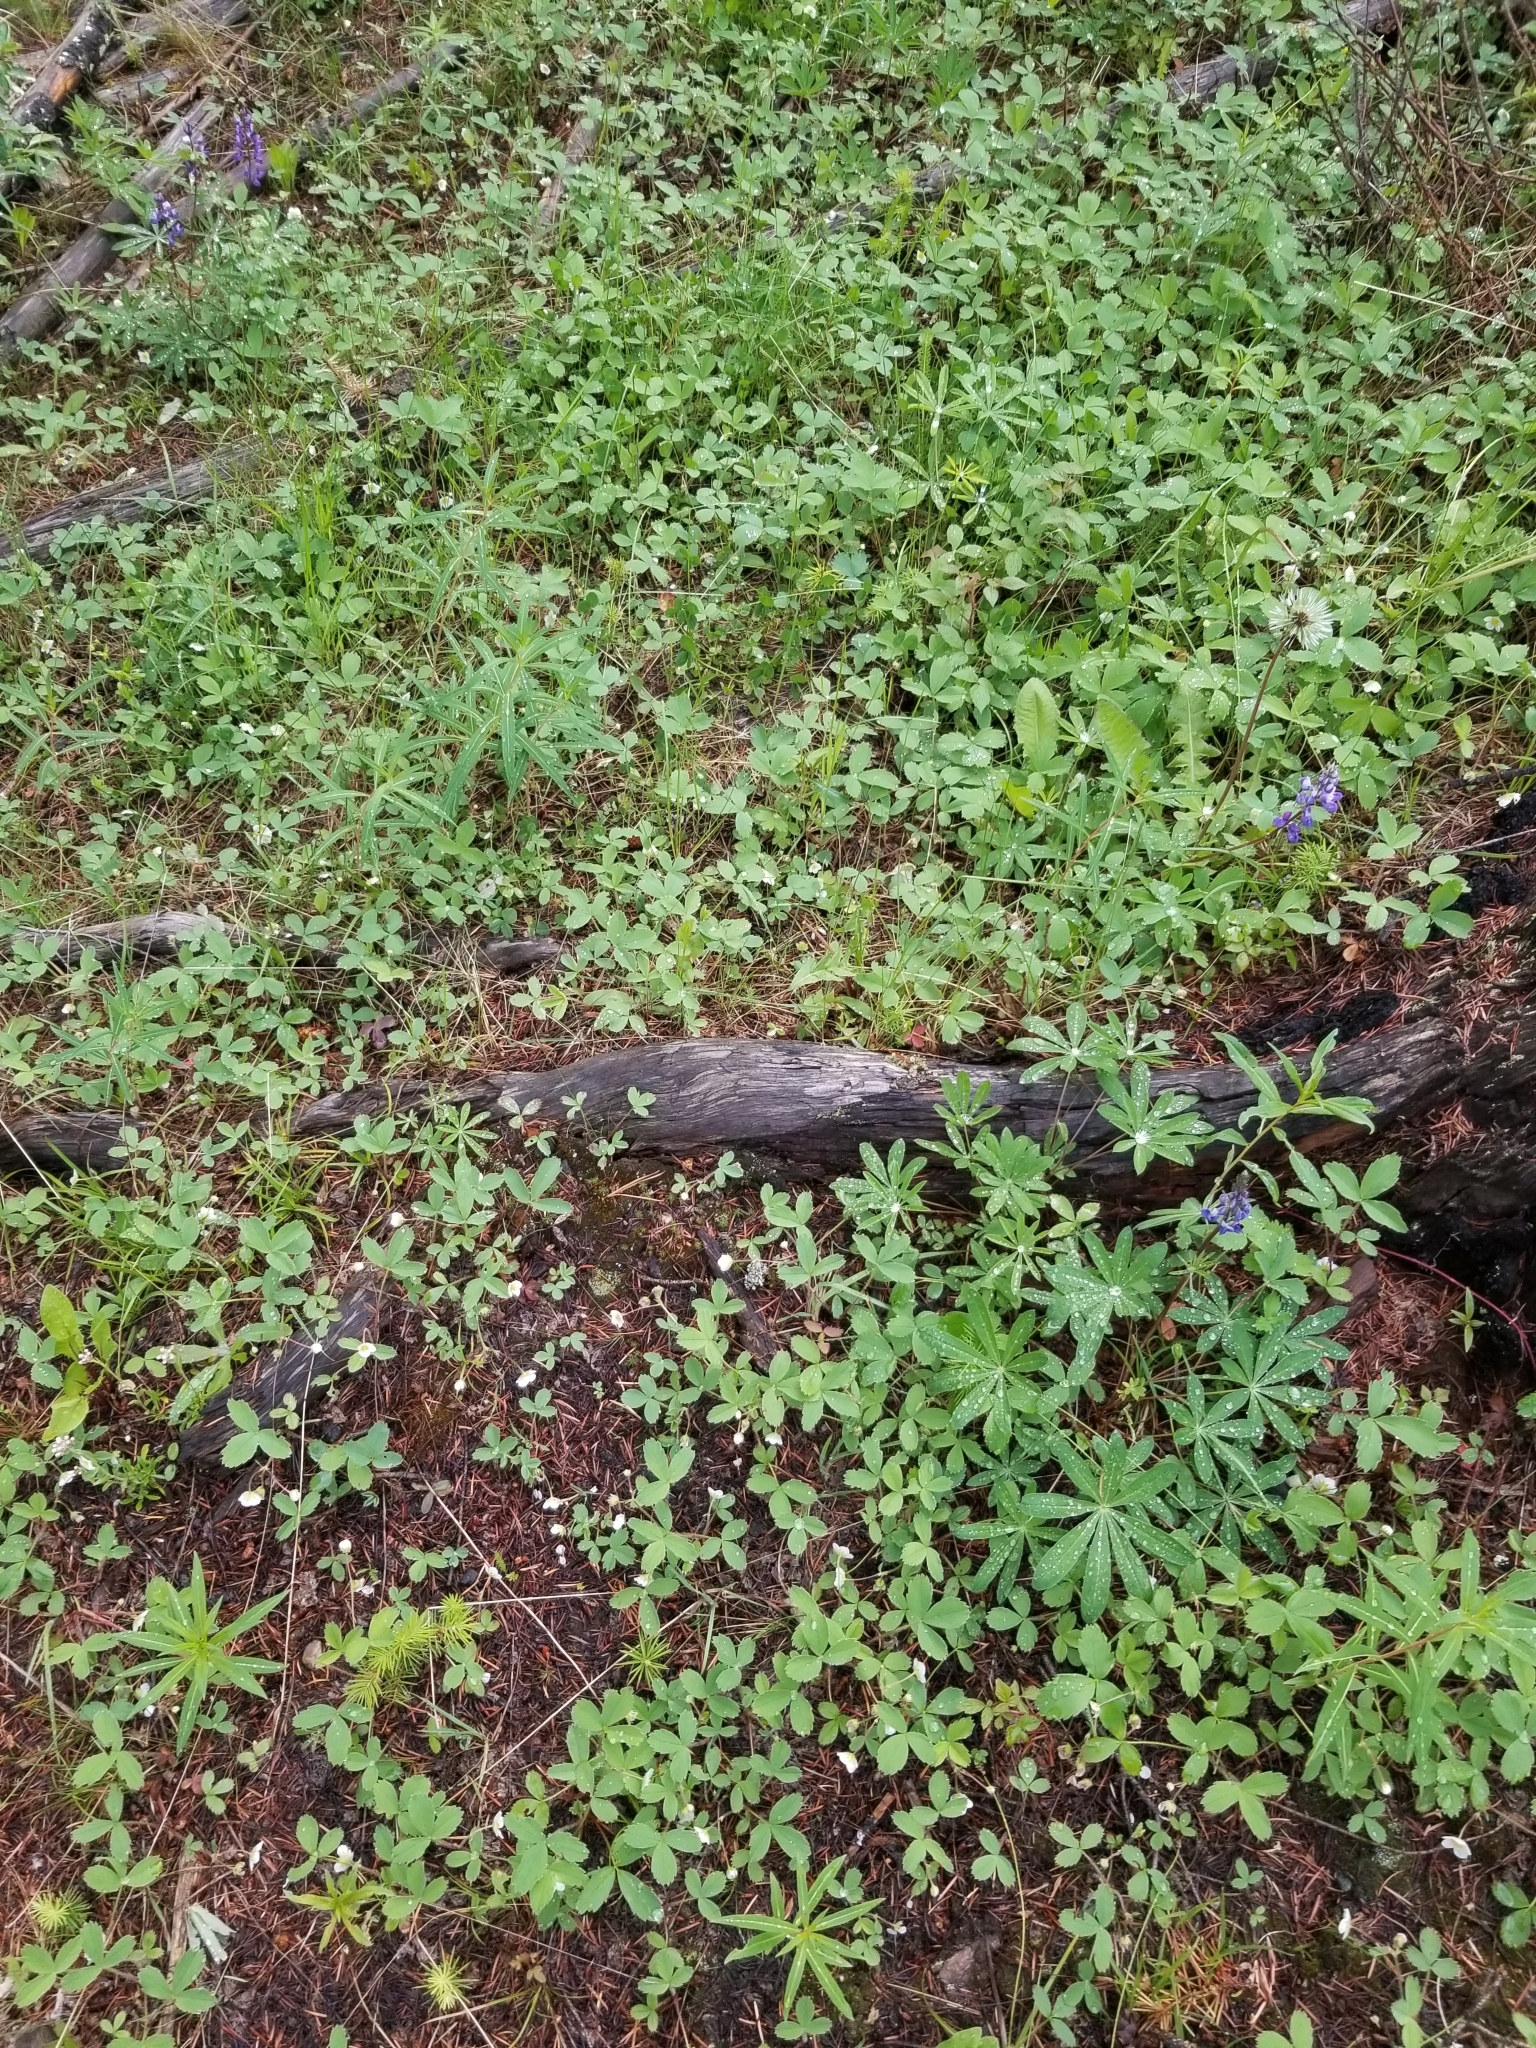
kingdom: Plantae
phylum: Tracheophyta
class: Magnoliopsida
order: Rosales
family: Rosaceae
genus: Fragaria
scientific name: Fragaria virginiana
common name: Thickleaved wild strawberry
